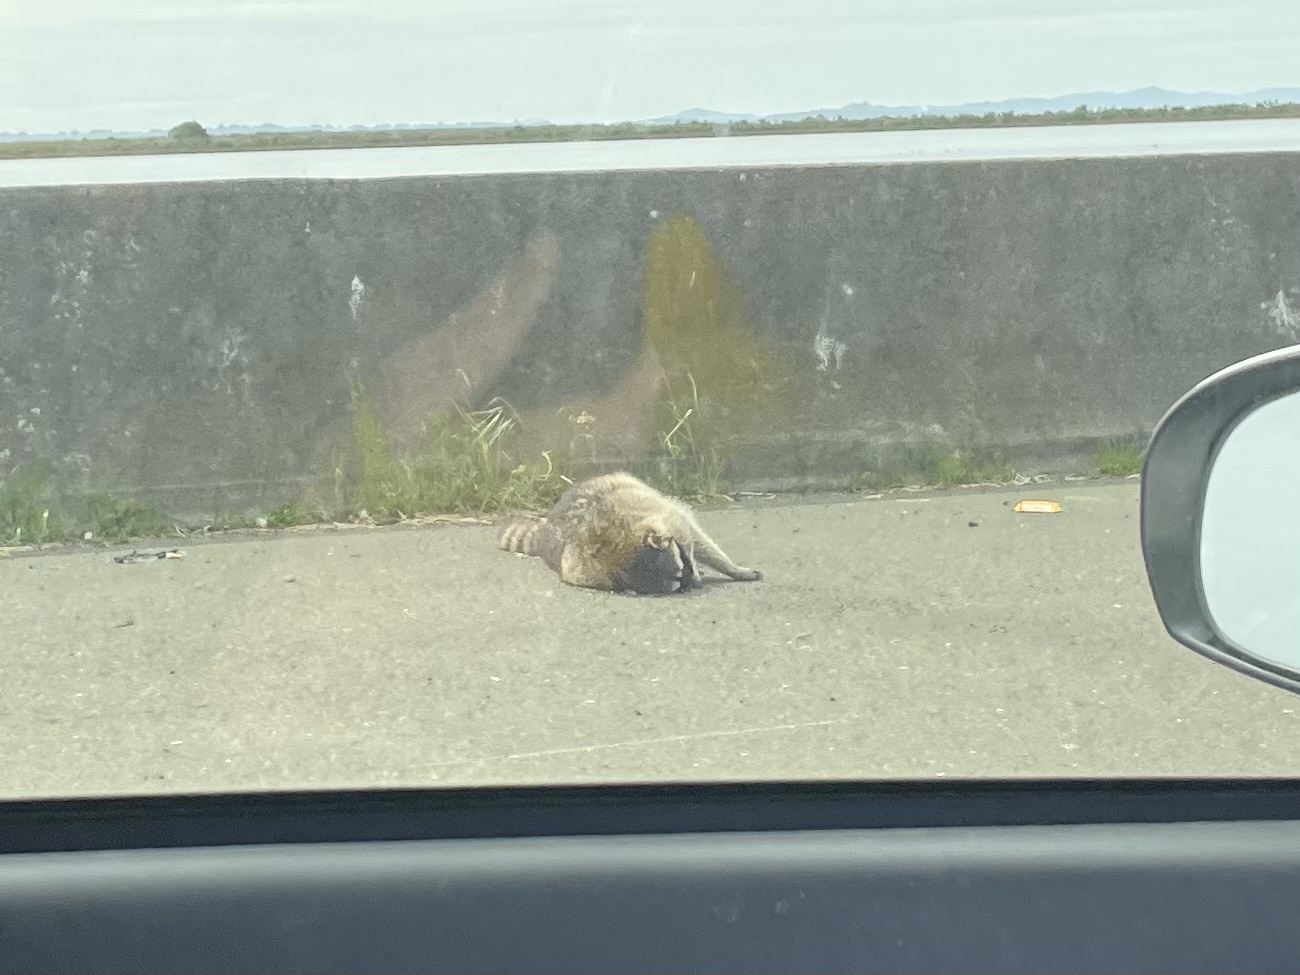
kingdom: Animalia
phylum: Chordata
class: Mammalia
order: Carnivora
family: Procyonidae
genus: Procyon
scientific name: Procyon lotor
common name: Raccoon
